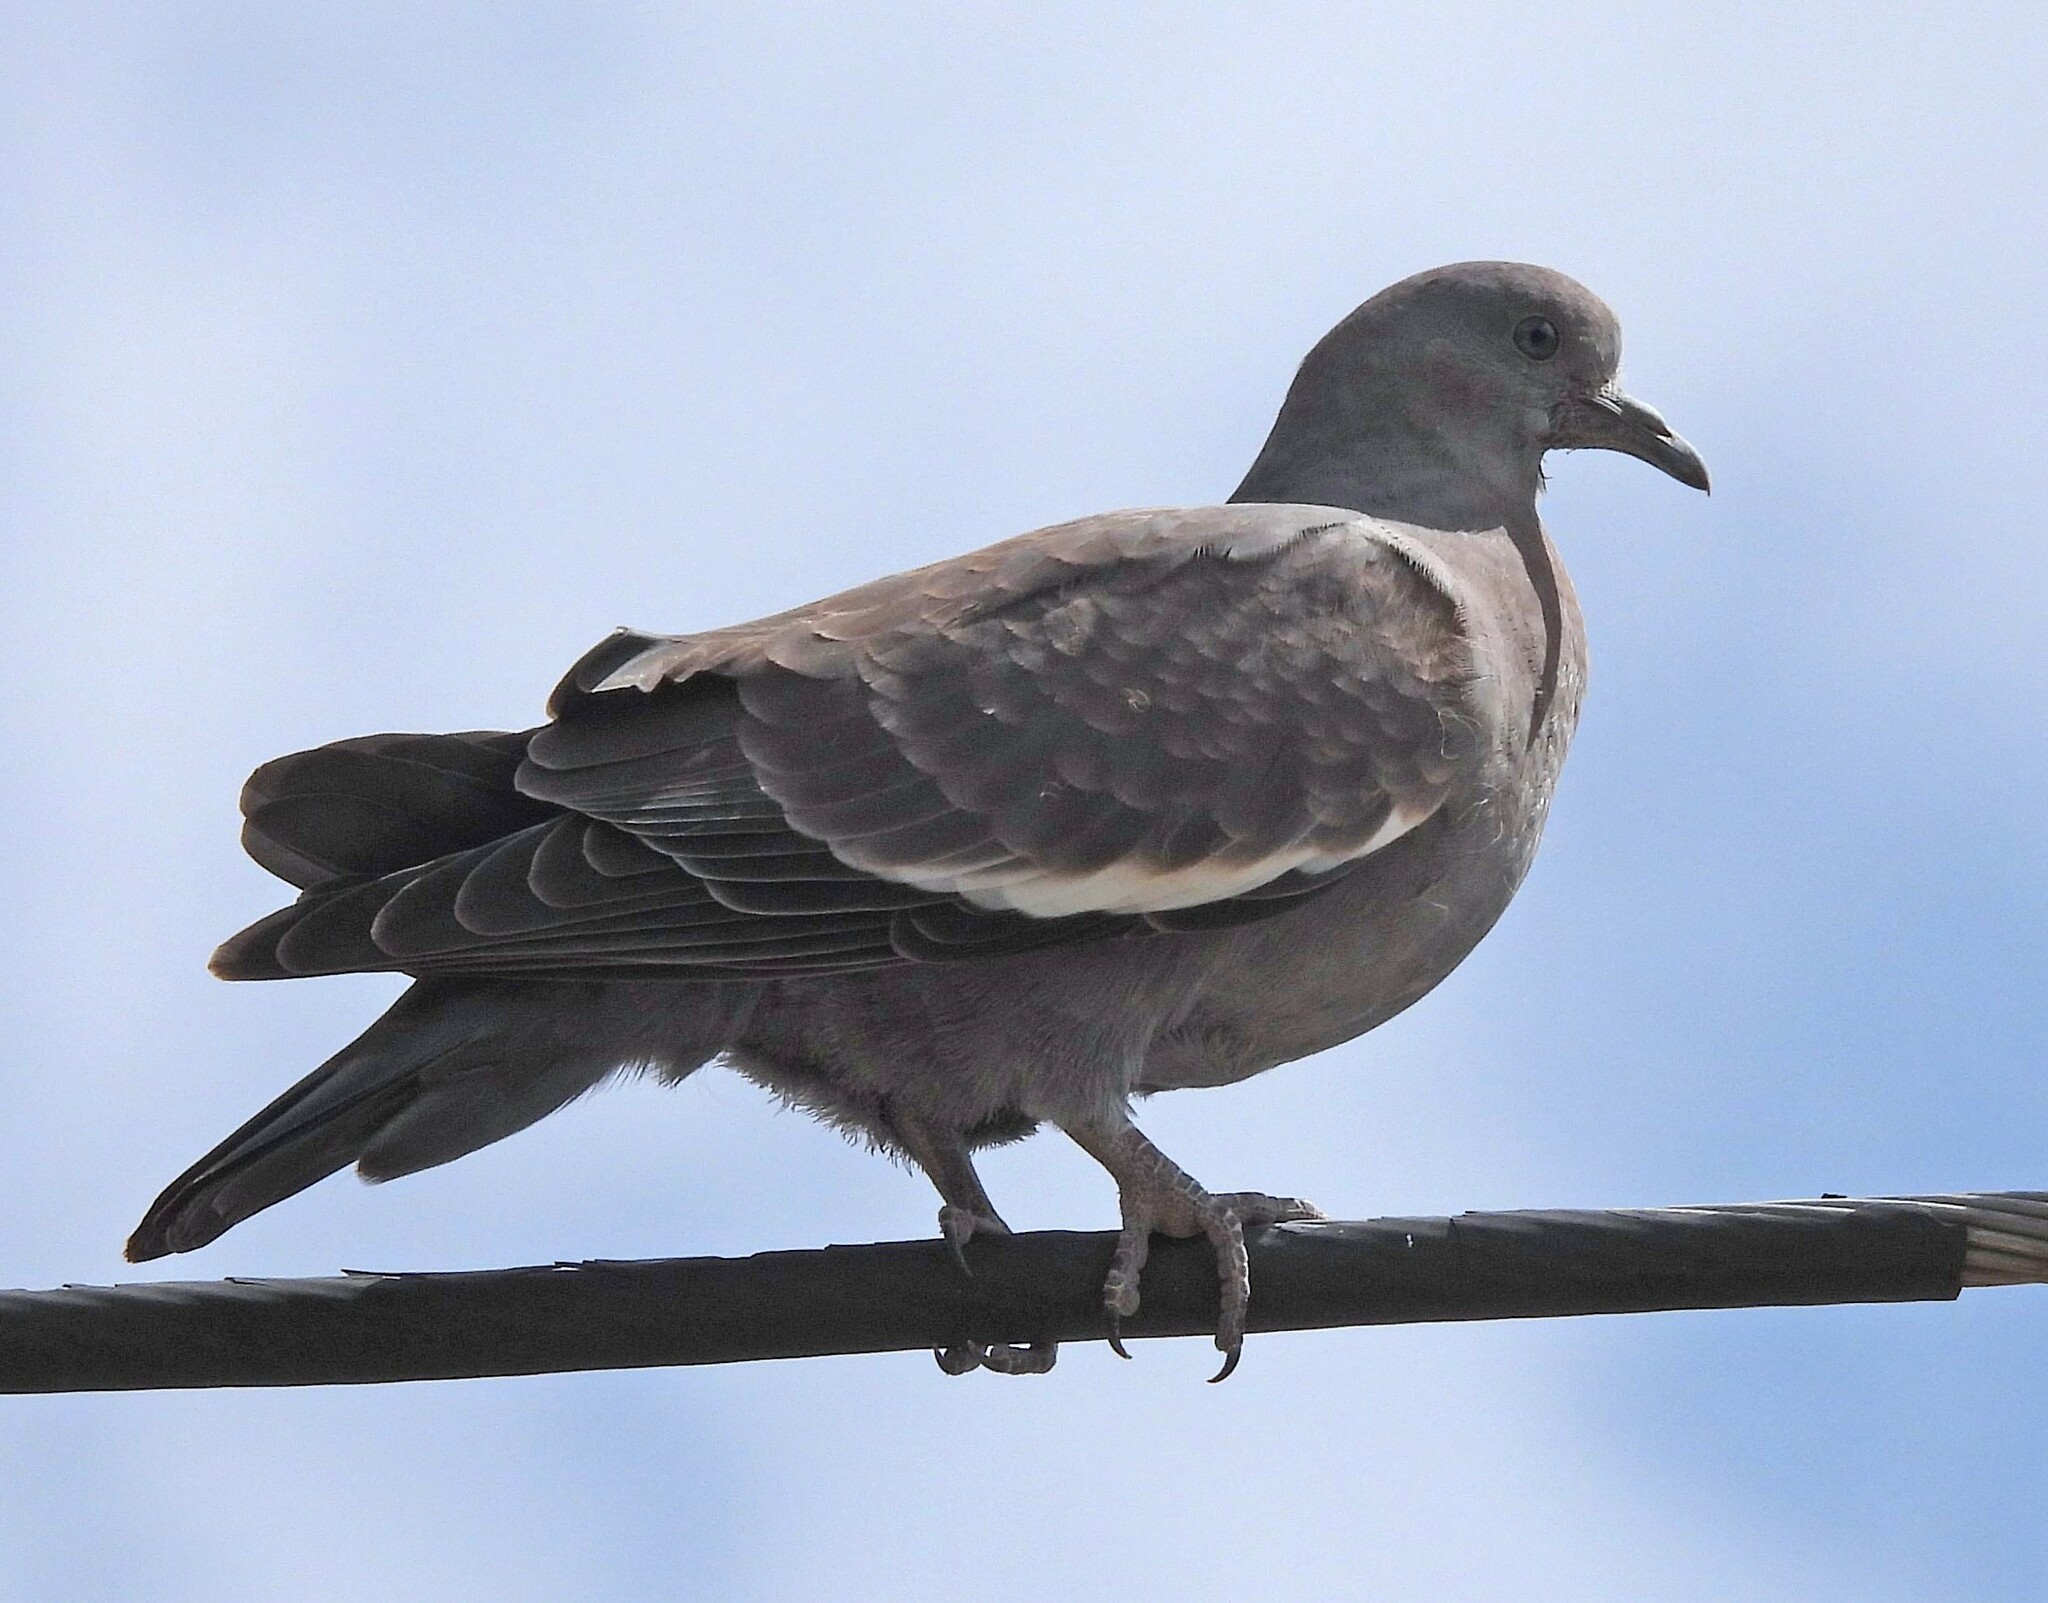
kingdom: Animalia
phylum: Chordata
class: Aves
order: Columbiformes
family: Columbidae
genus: Patagioenas
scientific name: Patagioenas maculosa
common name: Spot-winged pigeon
